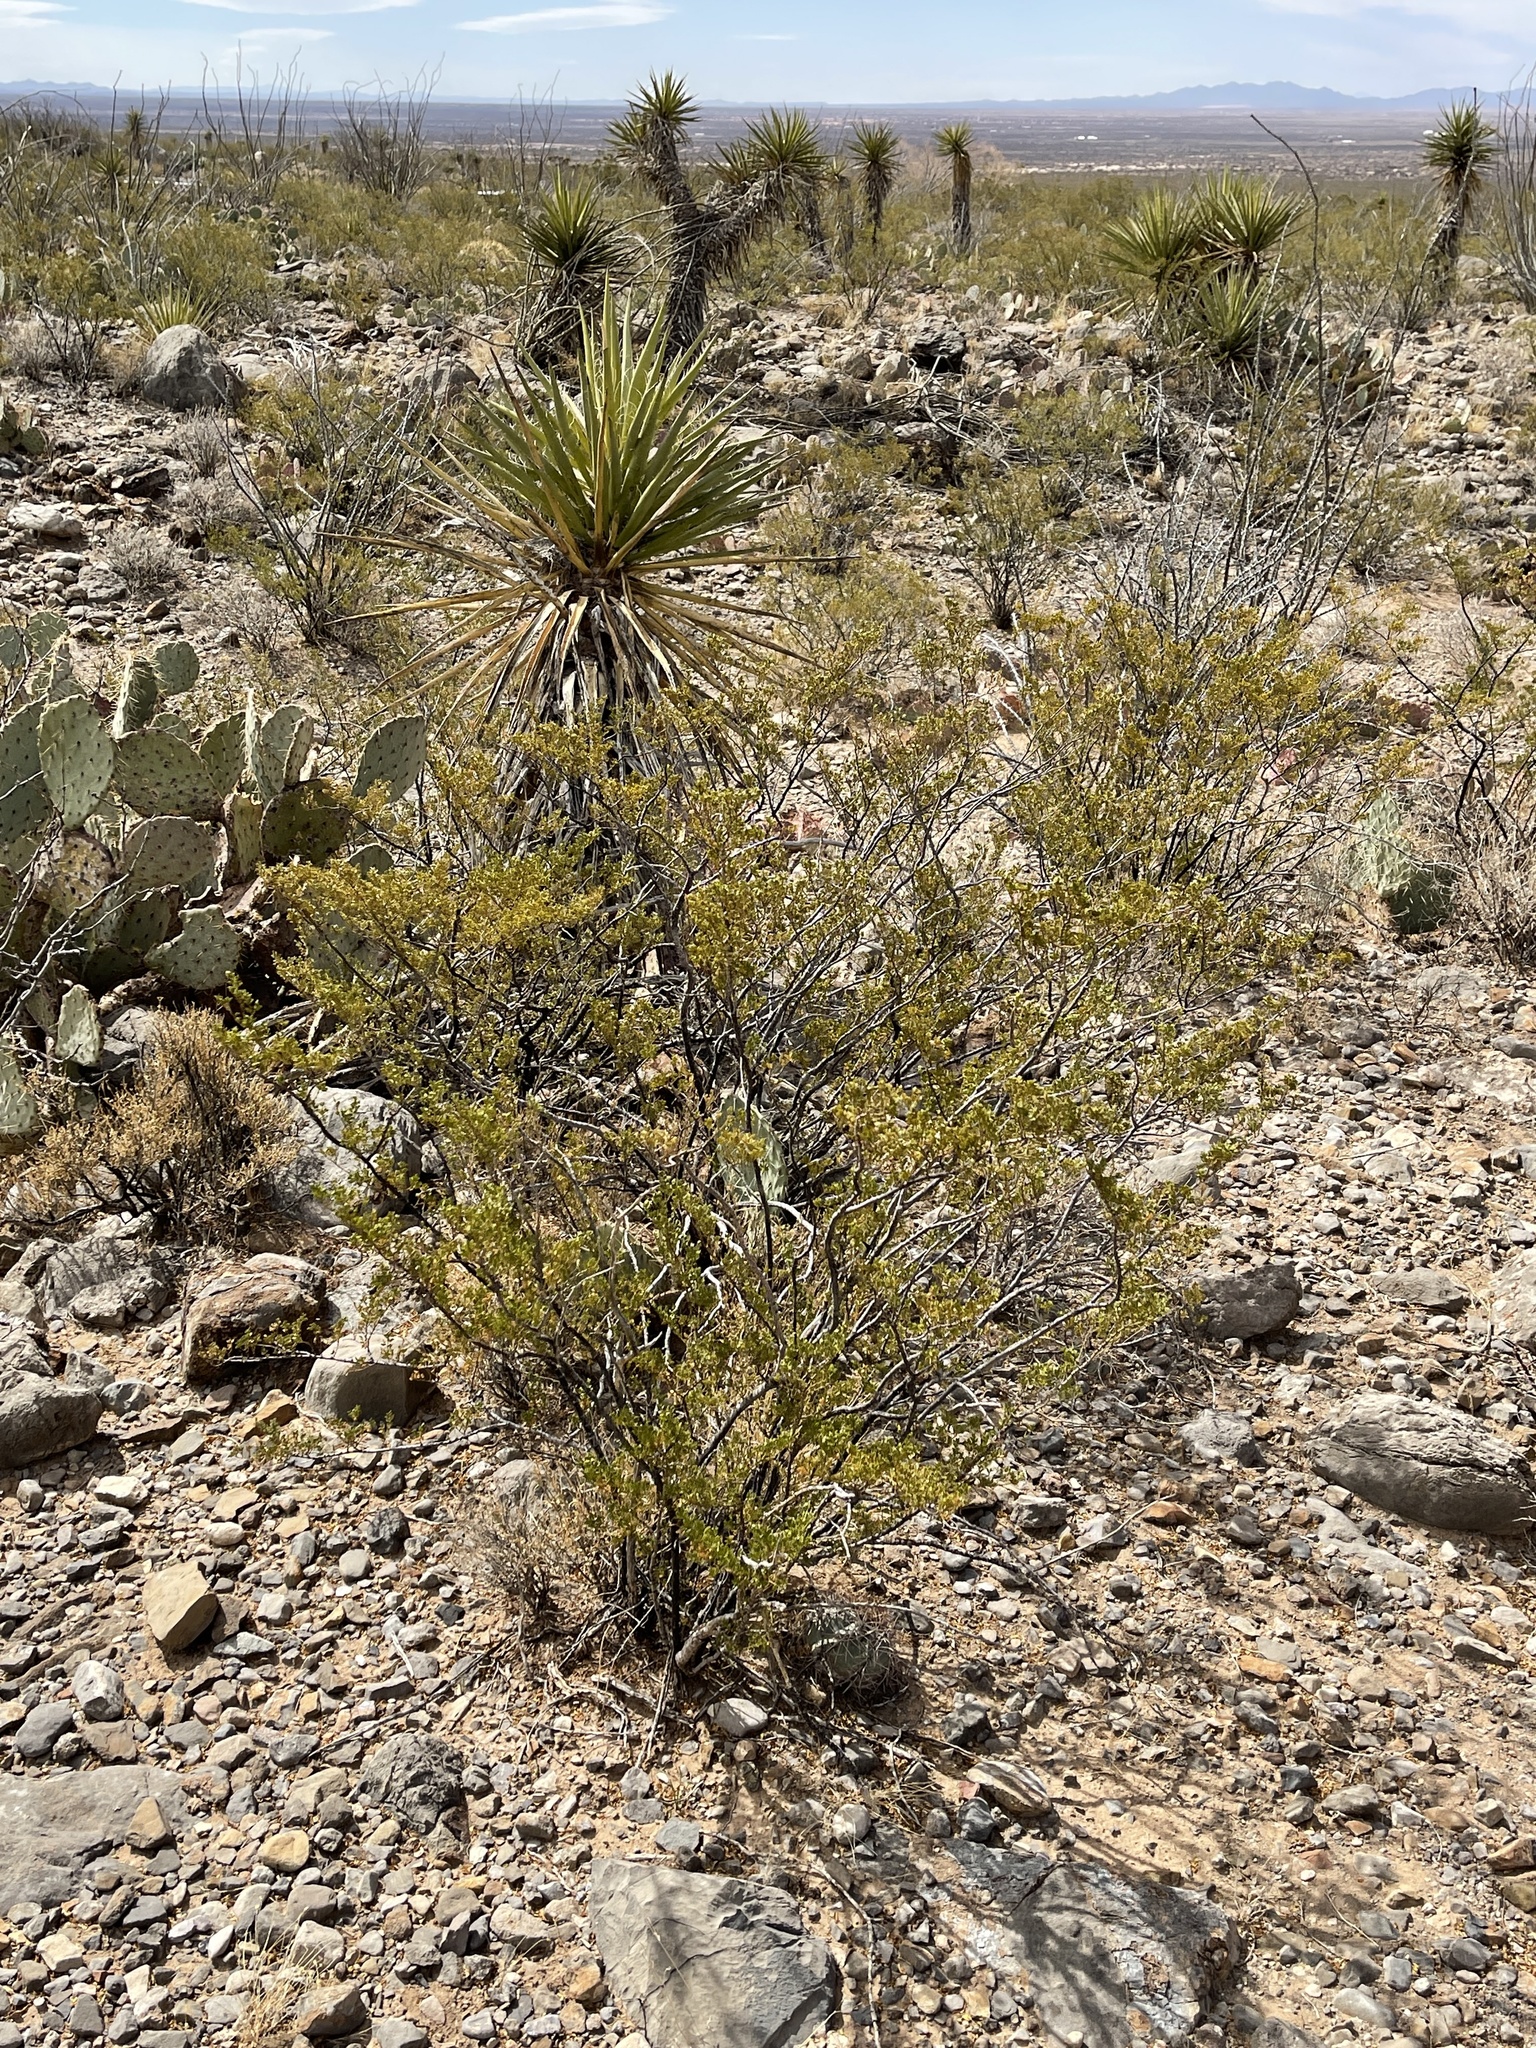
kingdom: Plantae
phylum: Tracheophyta
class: Magnoliopsida
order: Zygophyllales
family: Zygophyllaceae
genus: Larrea
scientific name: Larrea tridentata
